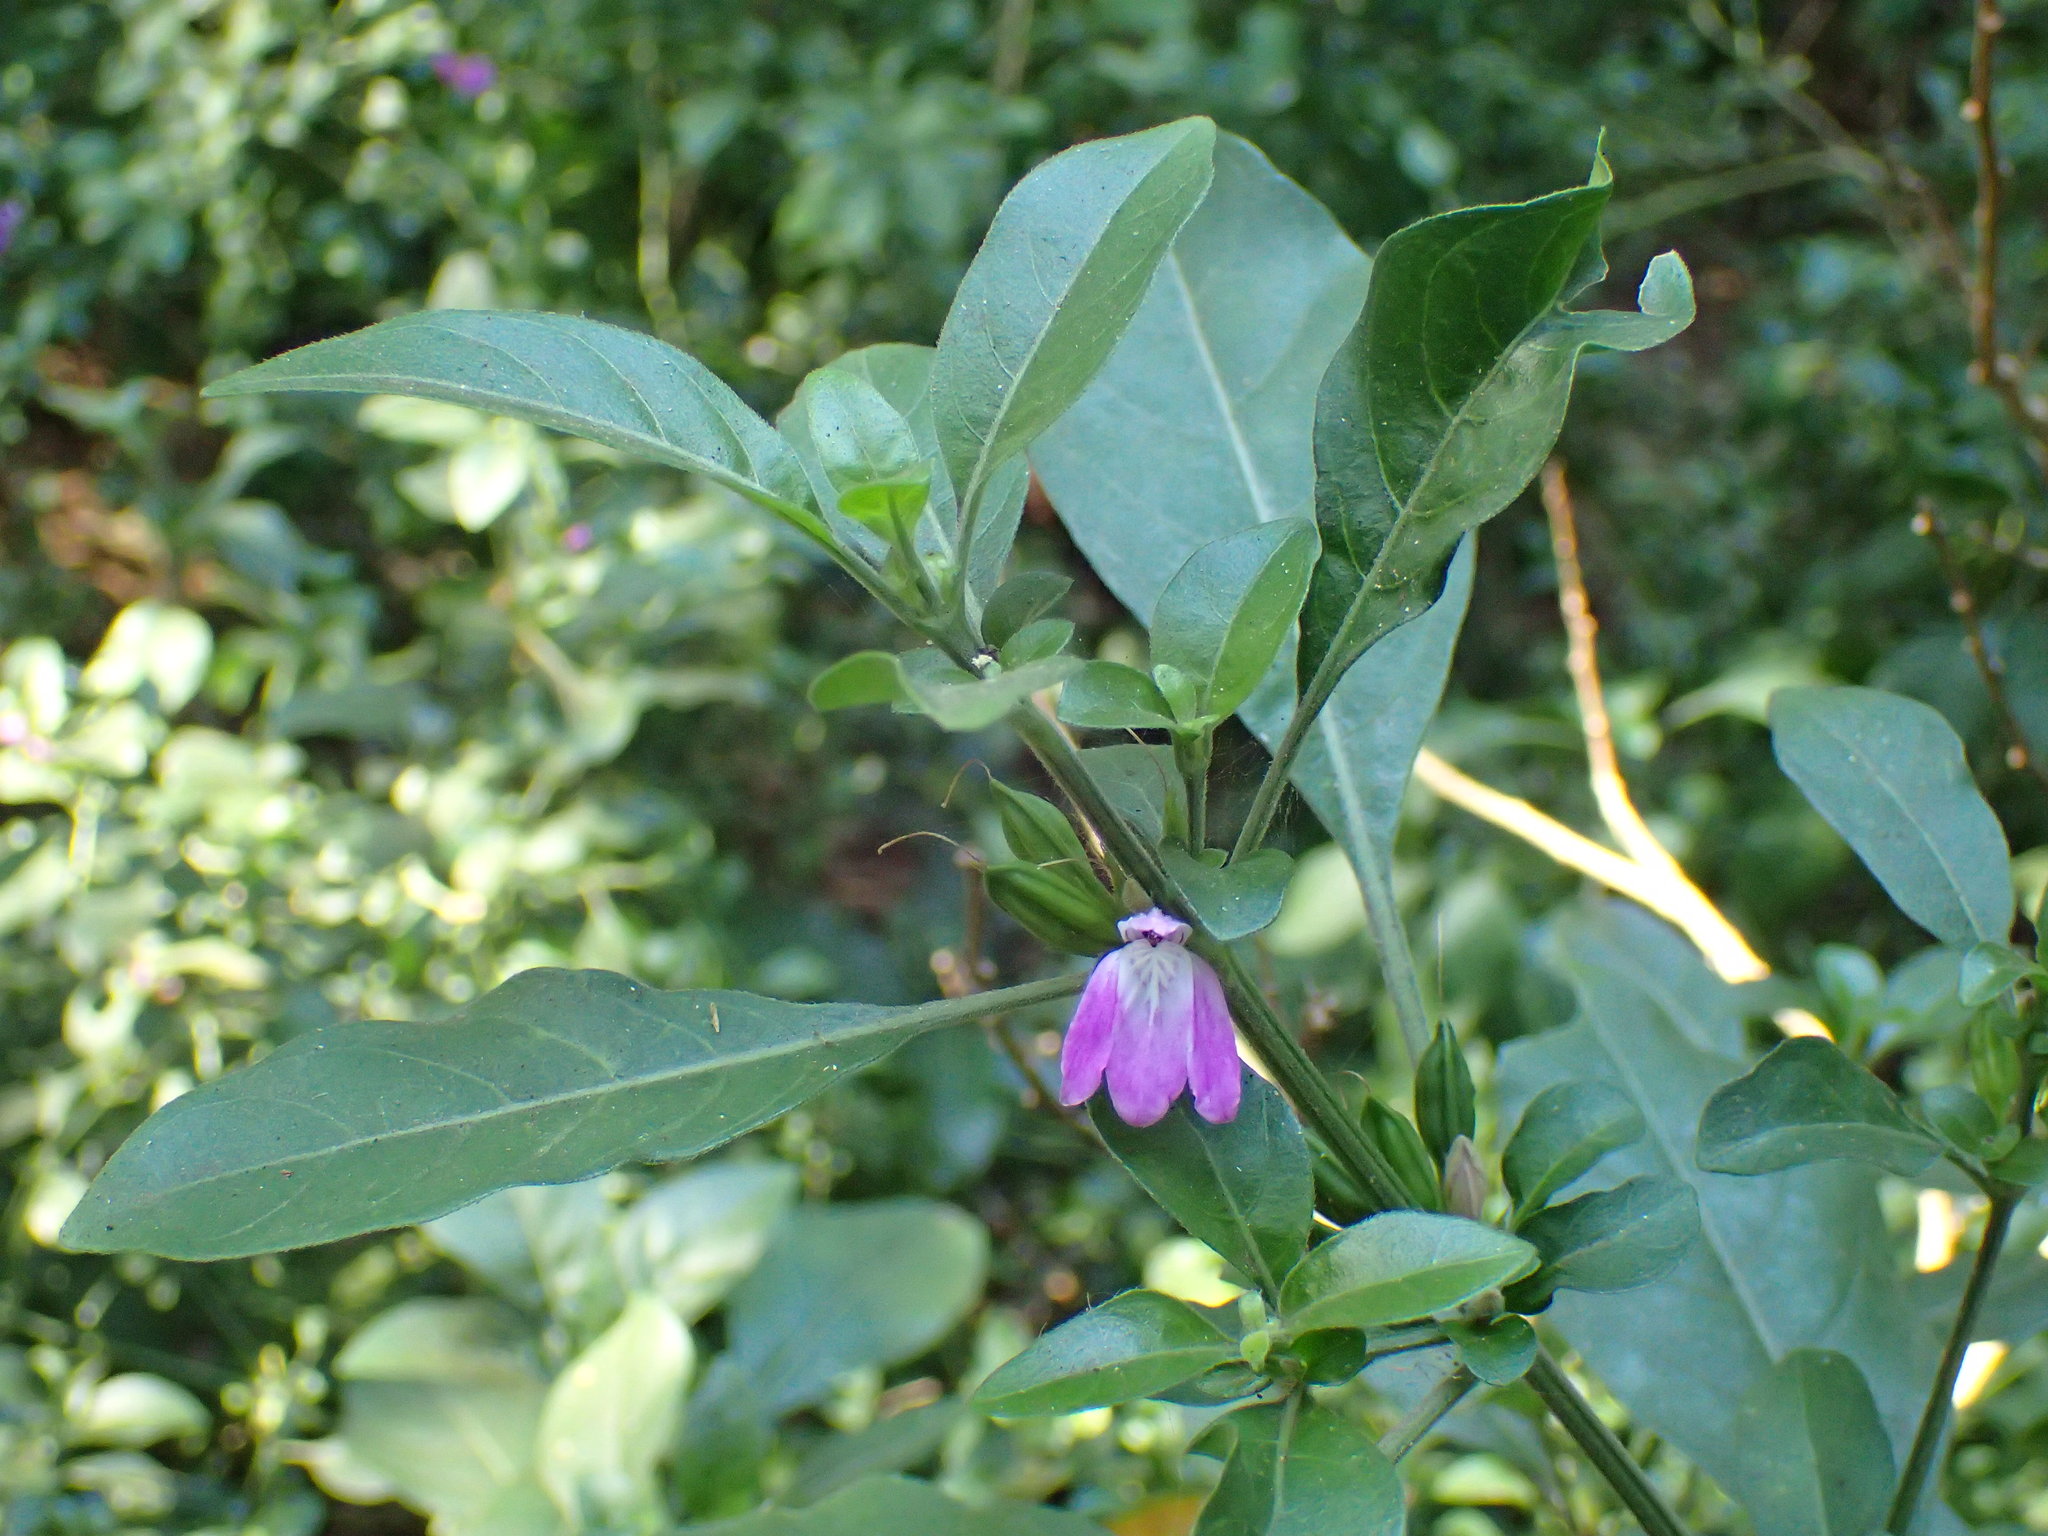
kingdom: Plantae
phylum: Tracheophyta
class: Magnoliopsida
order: Lamiales
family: Acanthaceae
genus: Justicia
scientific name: Justicia capensis
